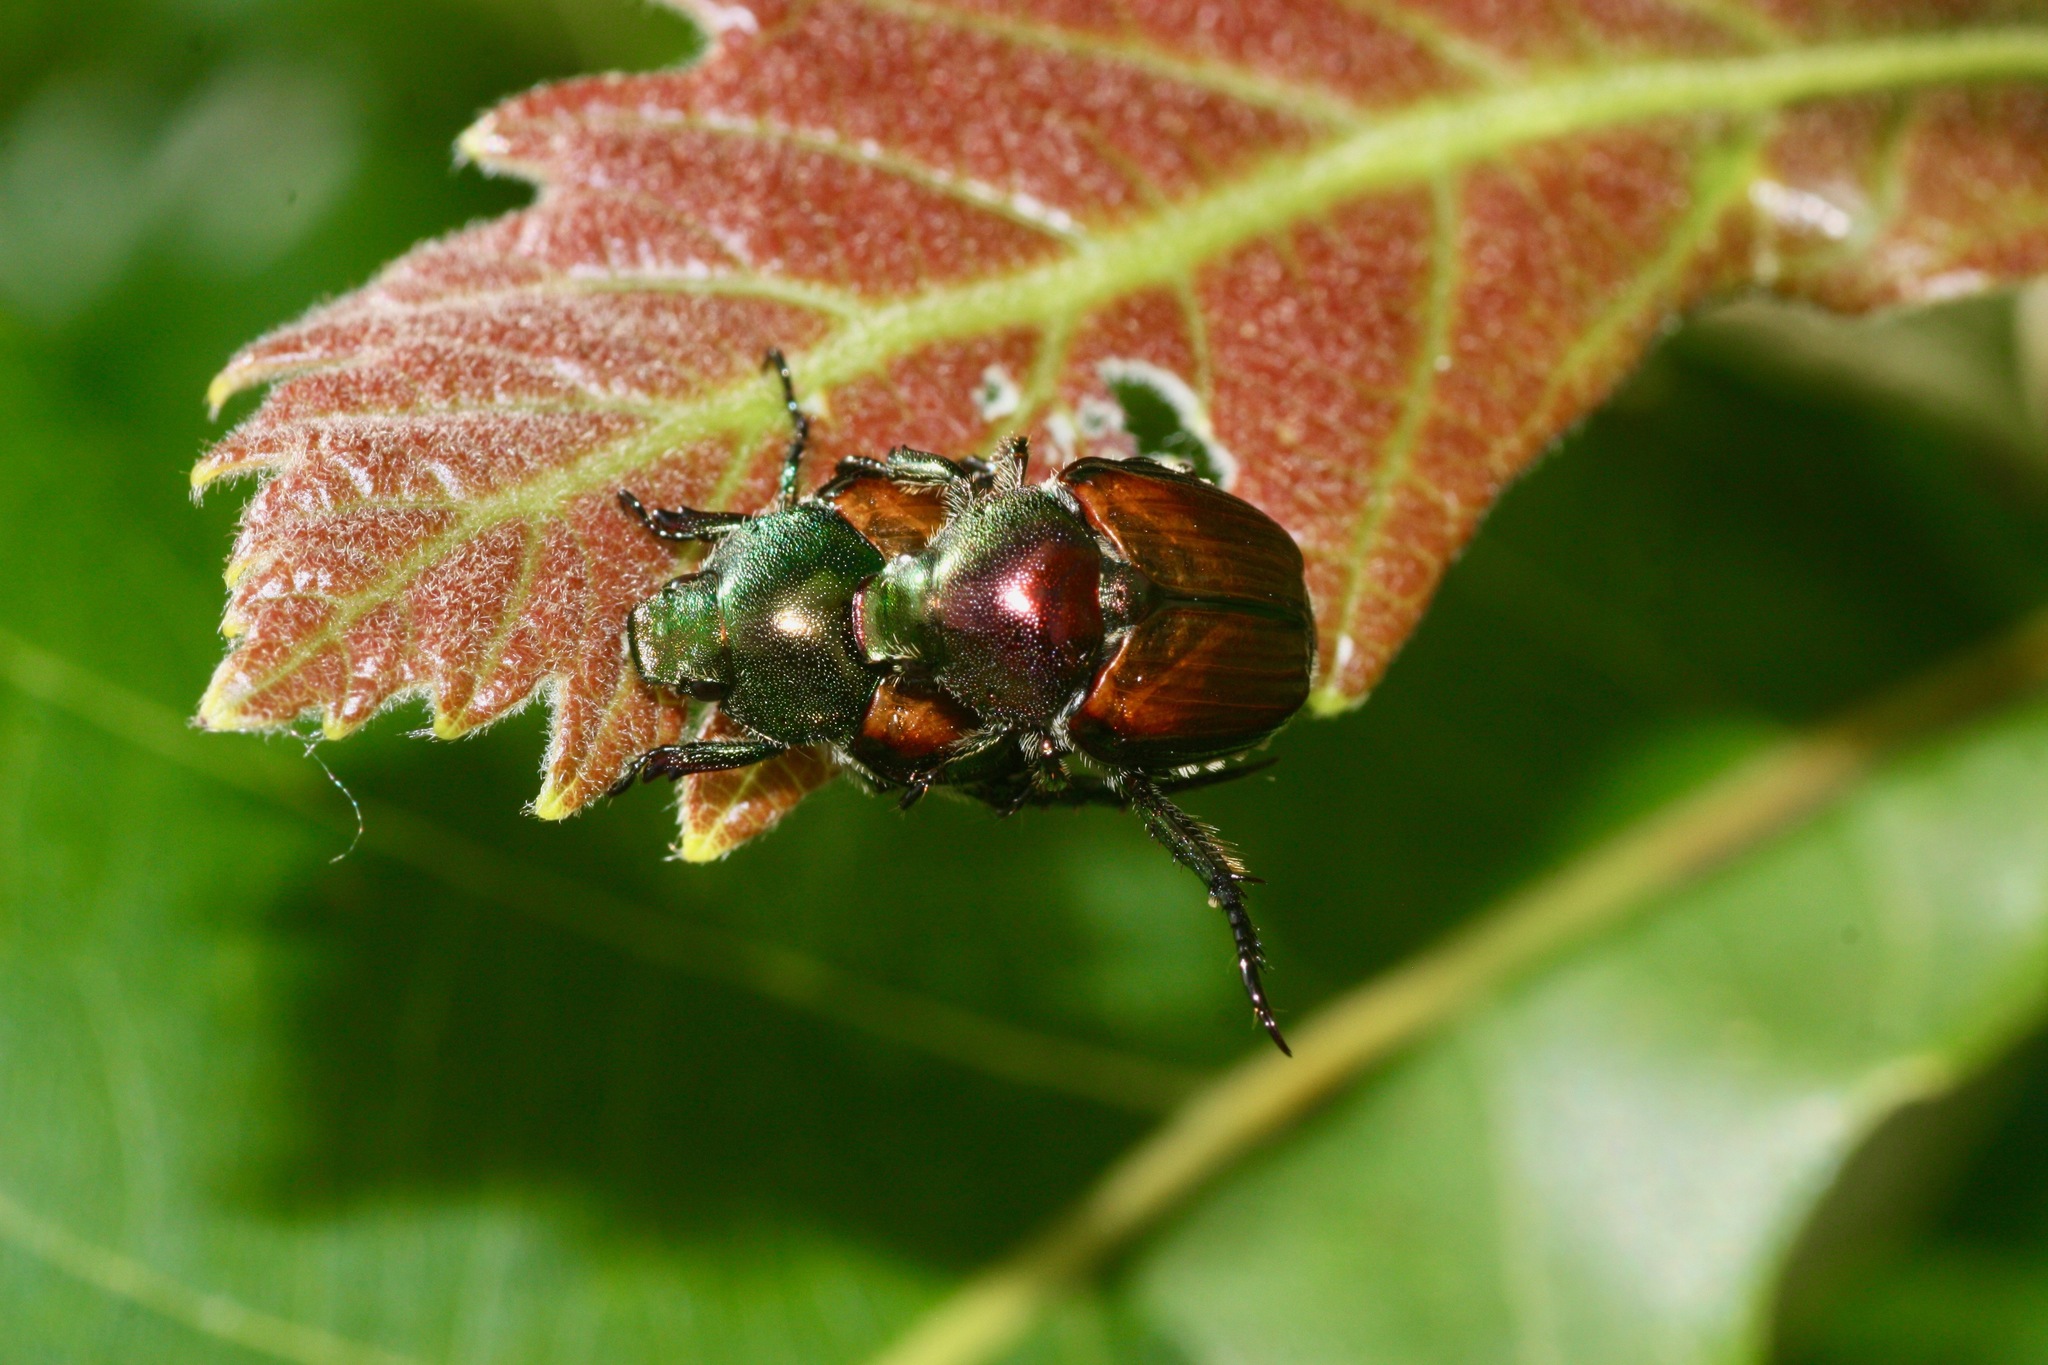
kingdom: Animalia
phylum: Arthropoda
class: Insecta
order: Coleoptera
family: Scarabaeidae
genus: Popillia
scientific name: Popillia japonica
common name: Japanese beetle
